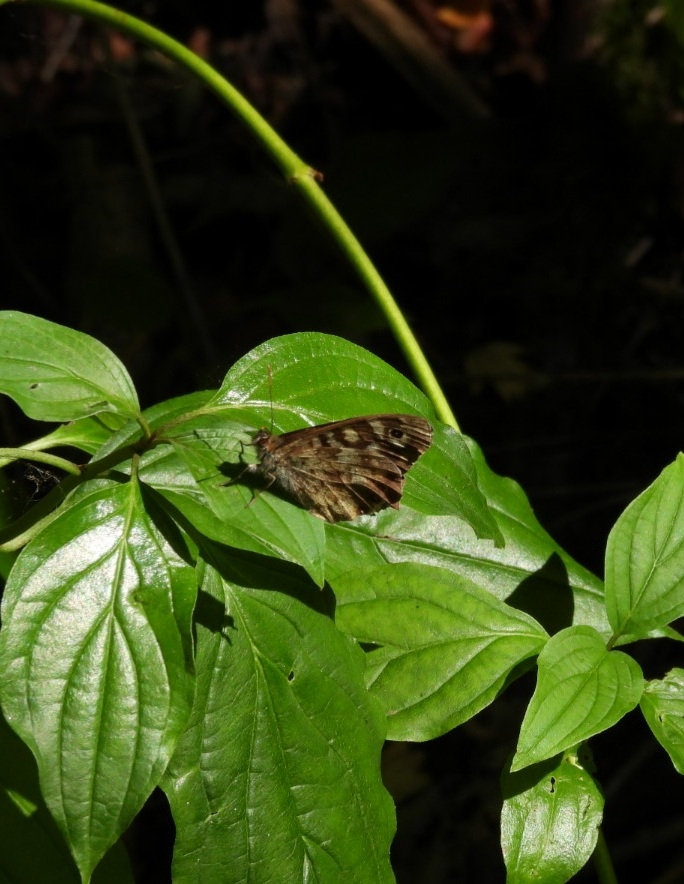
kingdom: Animalia
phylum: Arthropoda
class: Insecta
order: Lepidoptera
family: Nymphalidae
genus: Pararge
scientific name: Pararge aegeria
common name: Speckled wood
